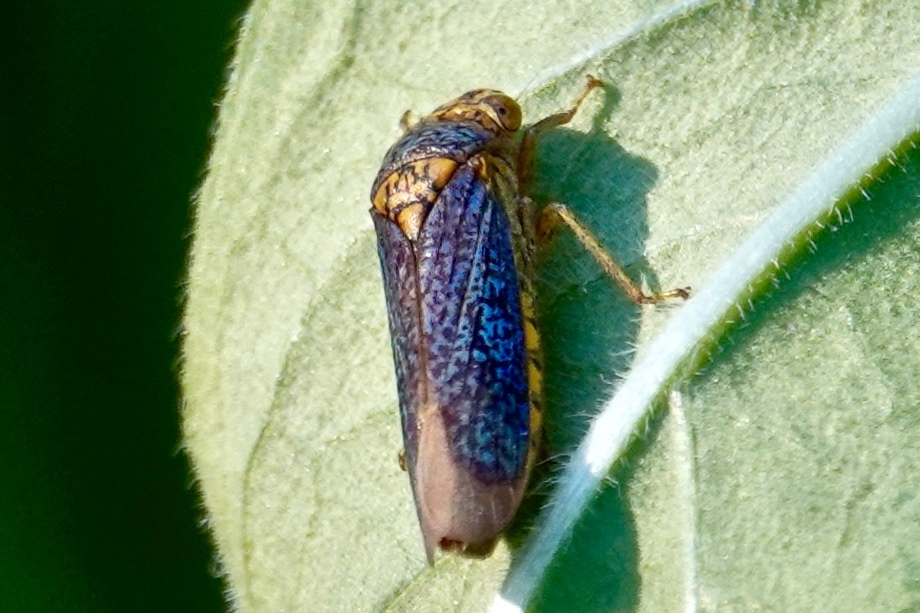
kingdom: Animalia
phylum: Arthropoda
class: Insecta
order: Hemiptera
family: Cicadellidae
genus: Oncometopia
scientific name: Oncometopia orbona
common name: Broad-headed sharpshooter
